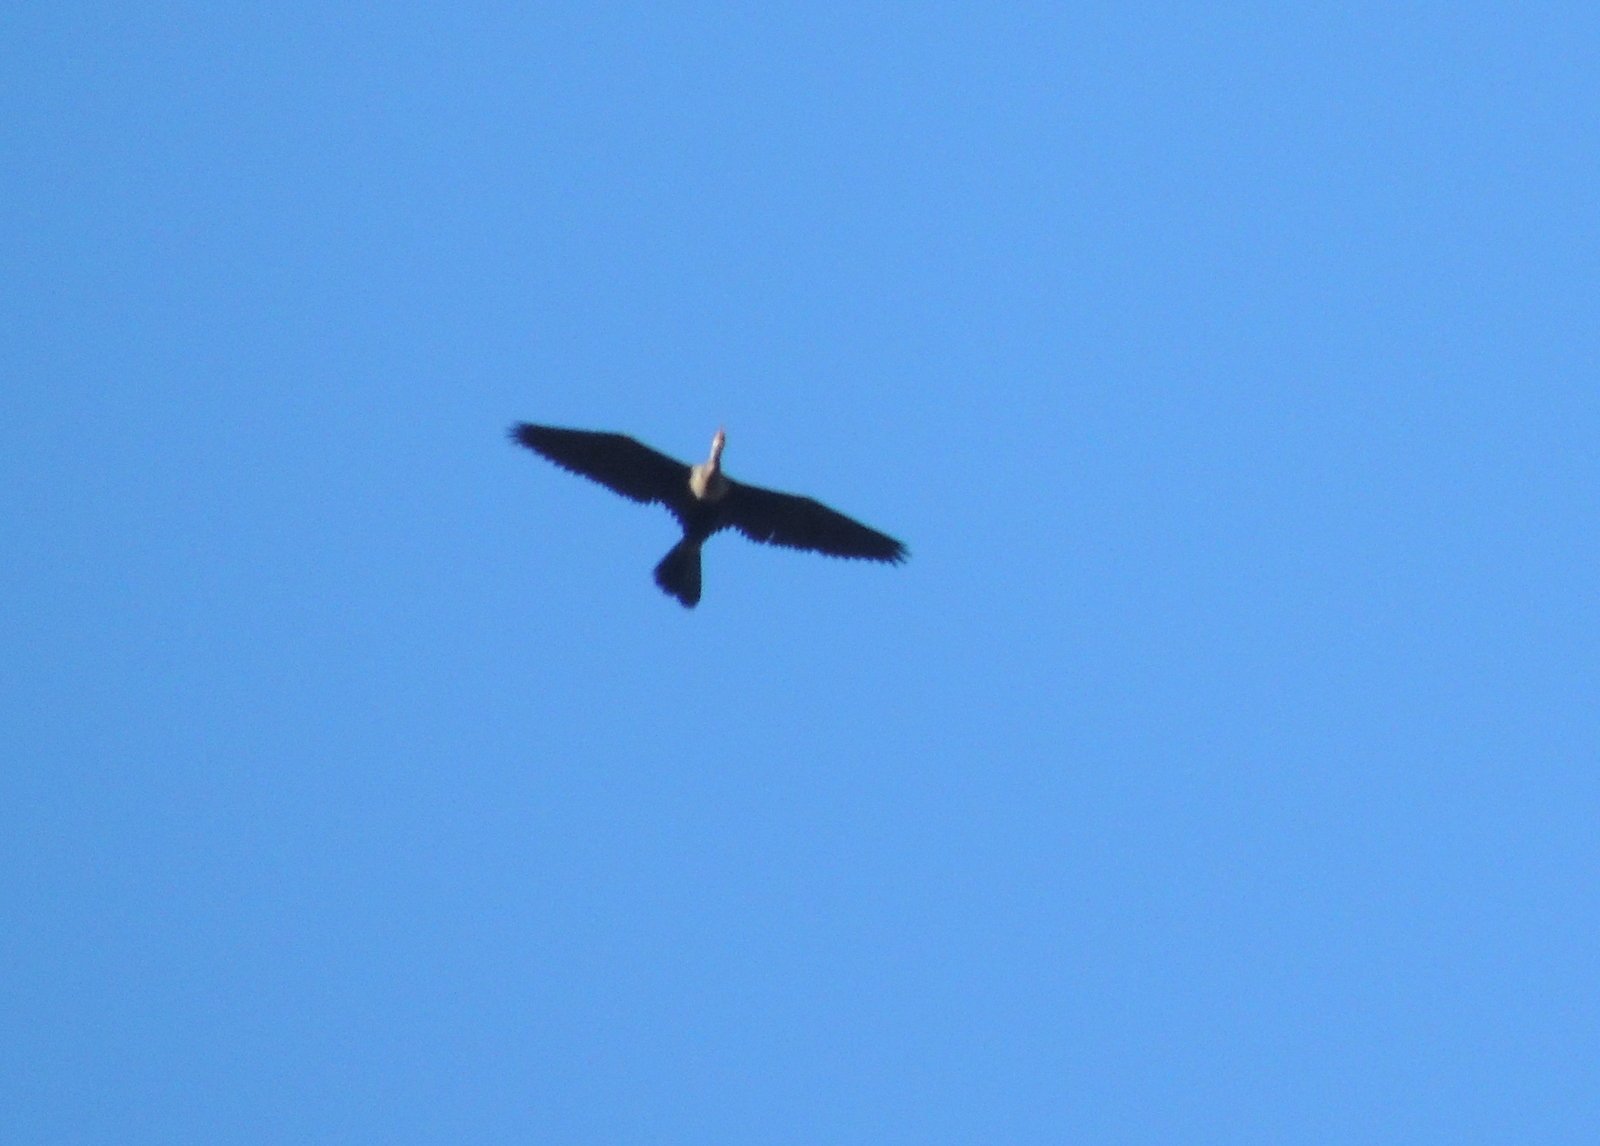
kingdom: Animalia
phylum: Chordata
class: Aves
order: Suliformes
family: Anhingidae
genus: Anhinga
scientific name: Anhinga anhinga
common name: Anhinga
